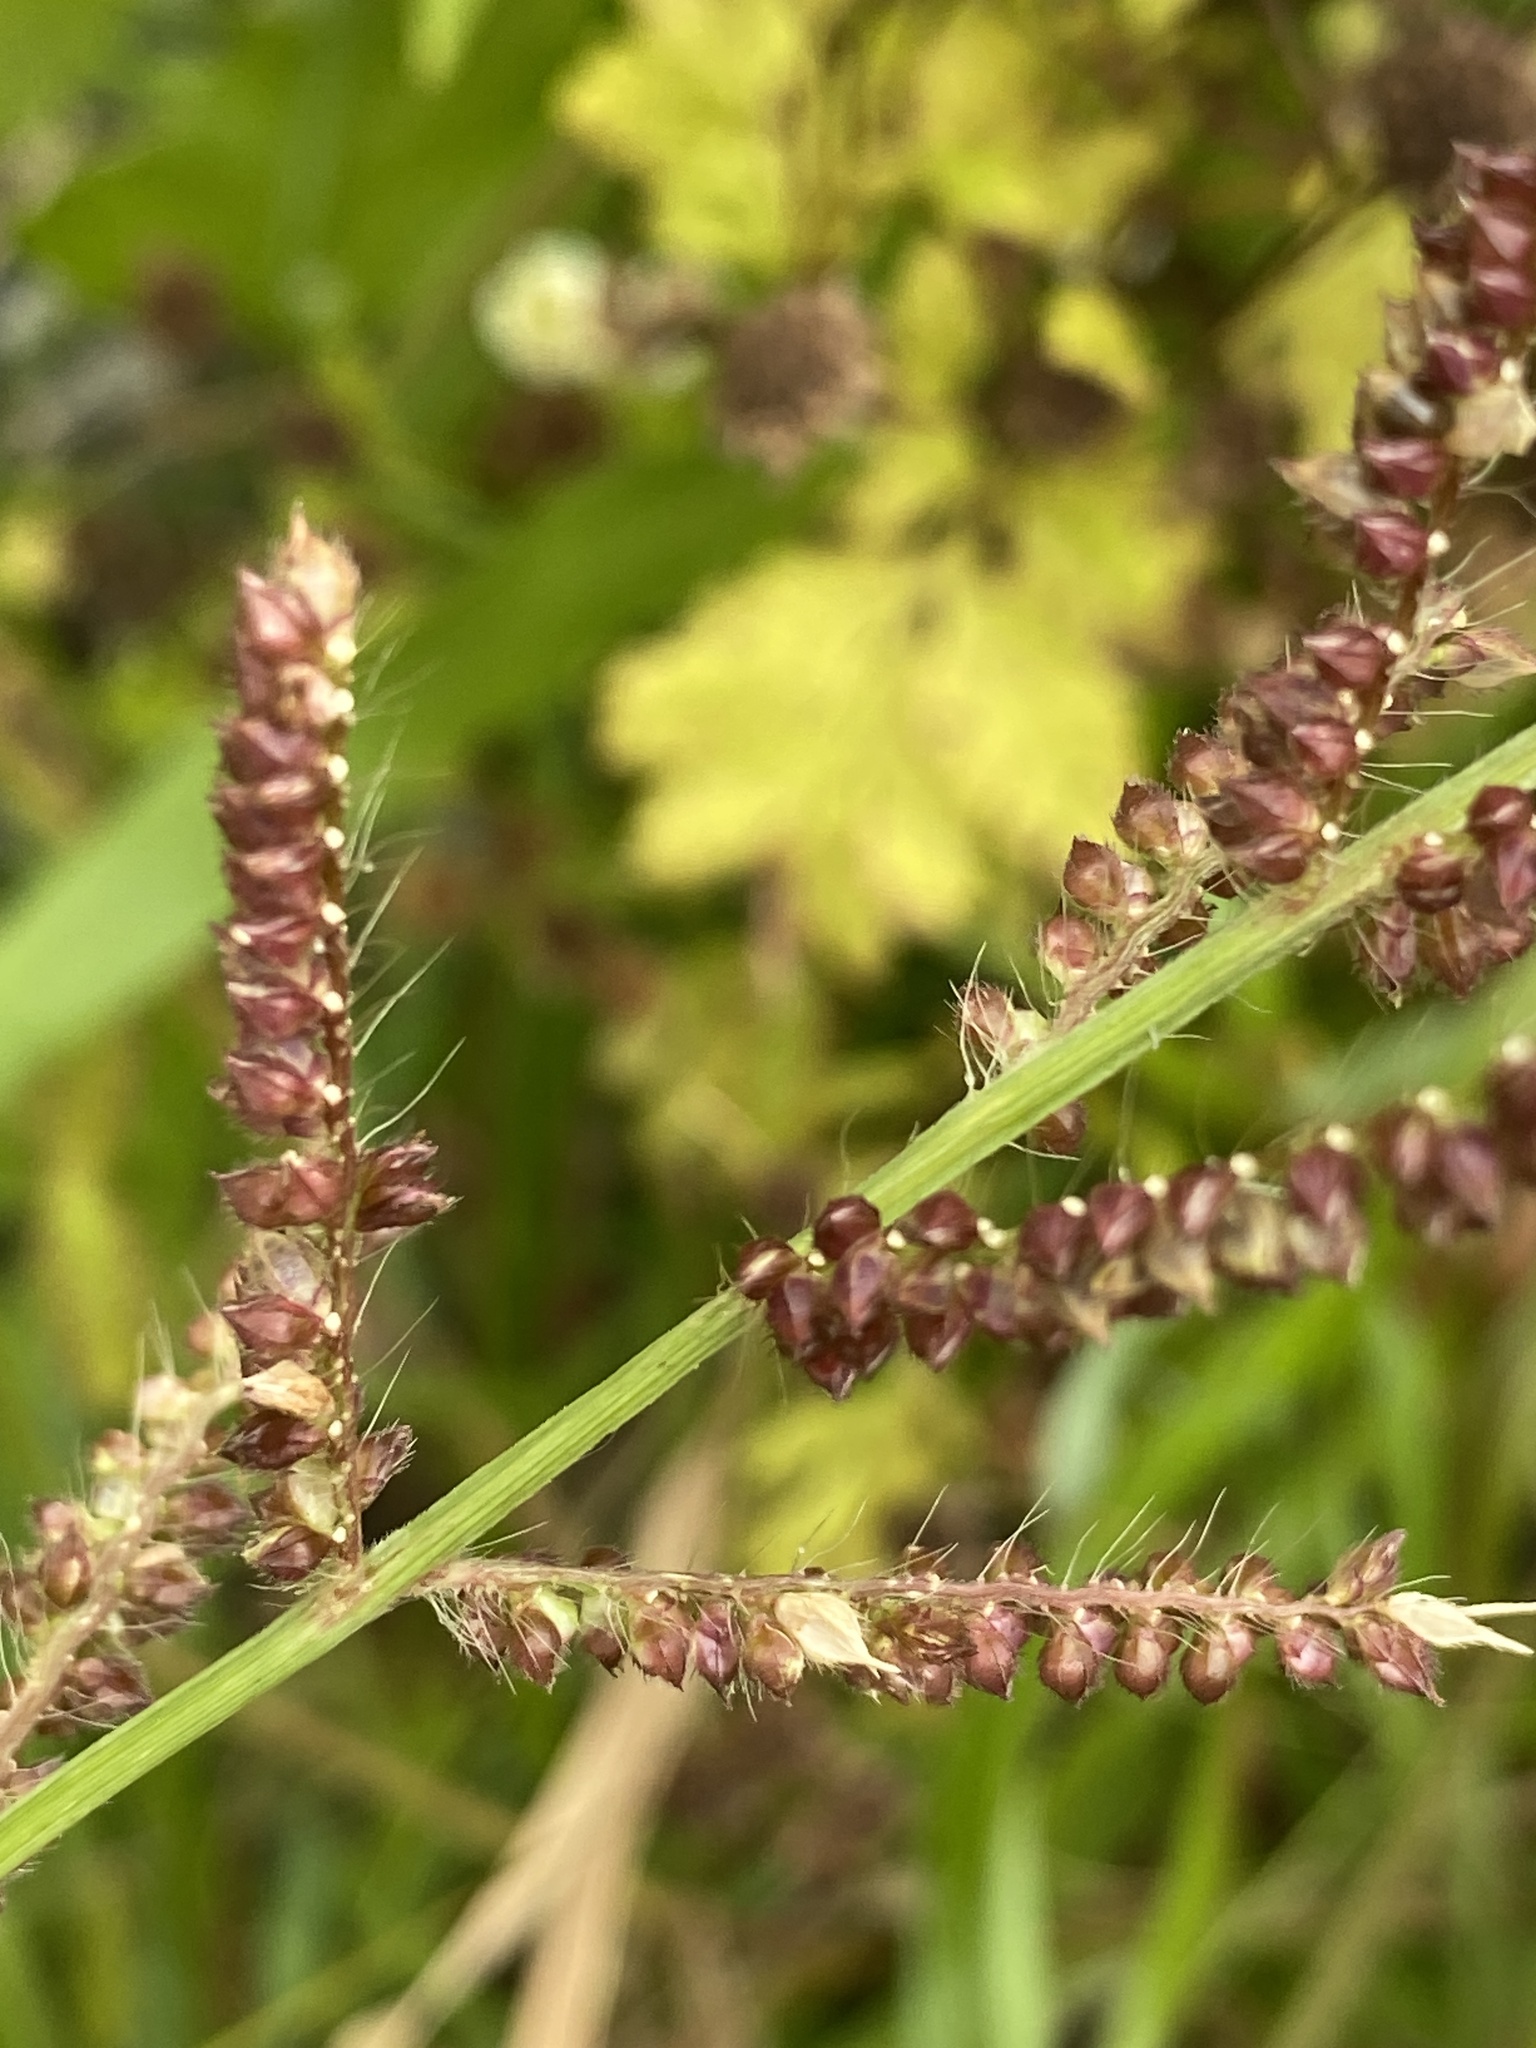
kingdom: Plantae
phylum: Tracheophyta
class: Liliopsida
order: Poales
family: Poaceae
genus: Echinochloa
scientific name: Echinochloa crus-galli
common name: Cockspur
